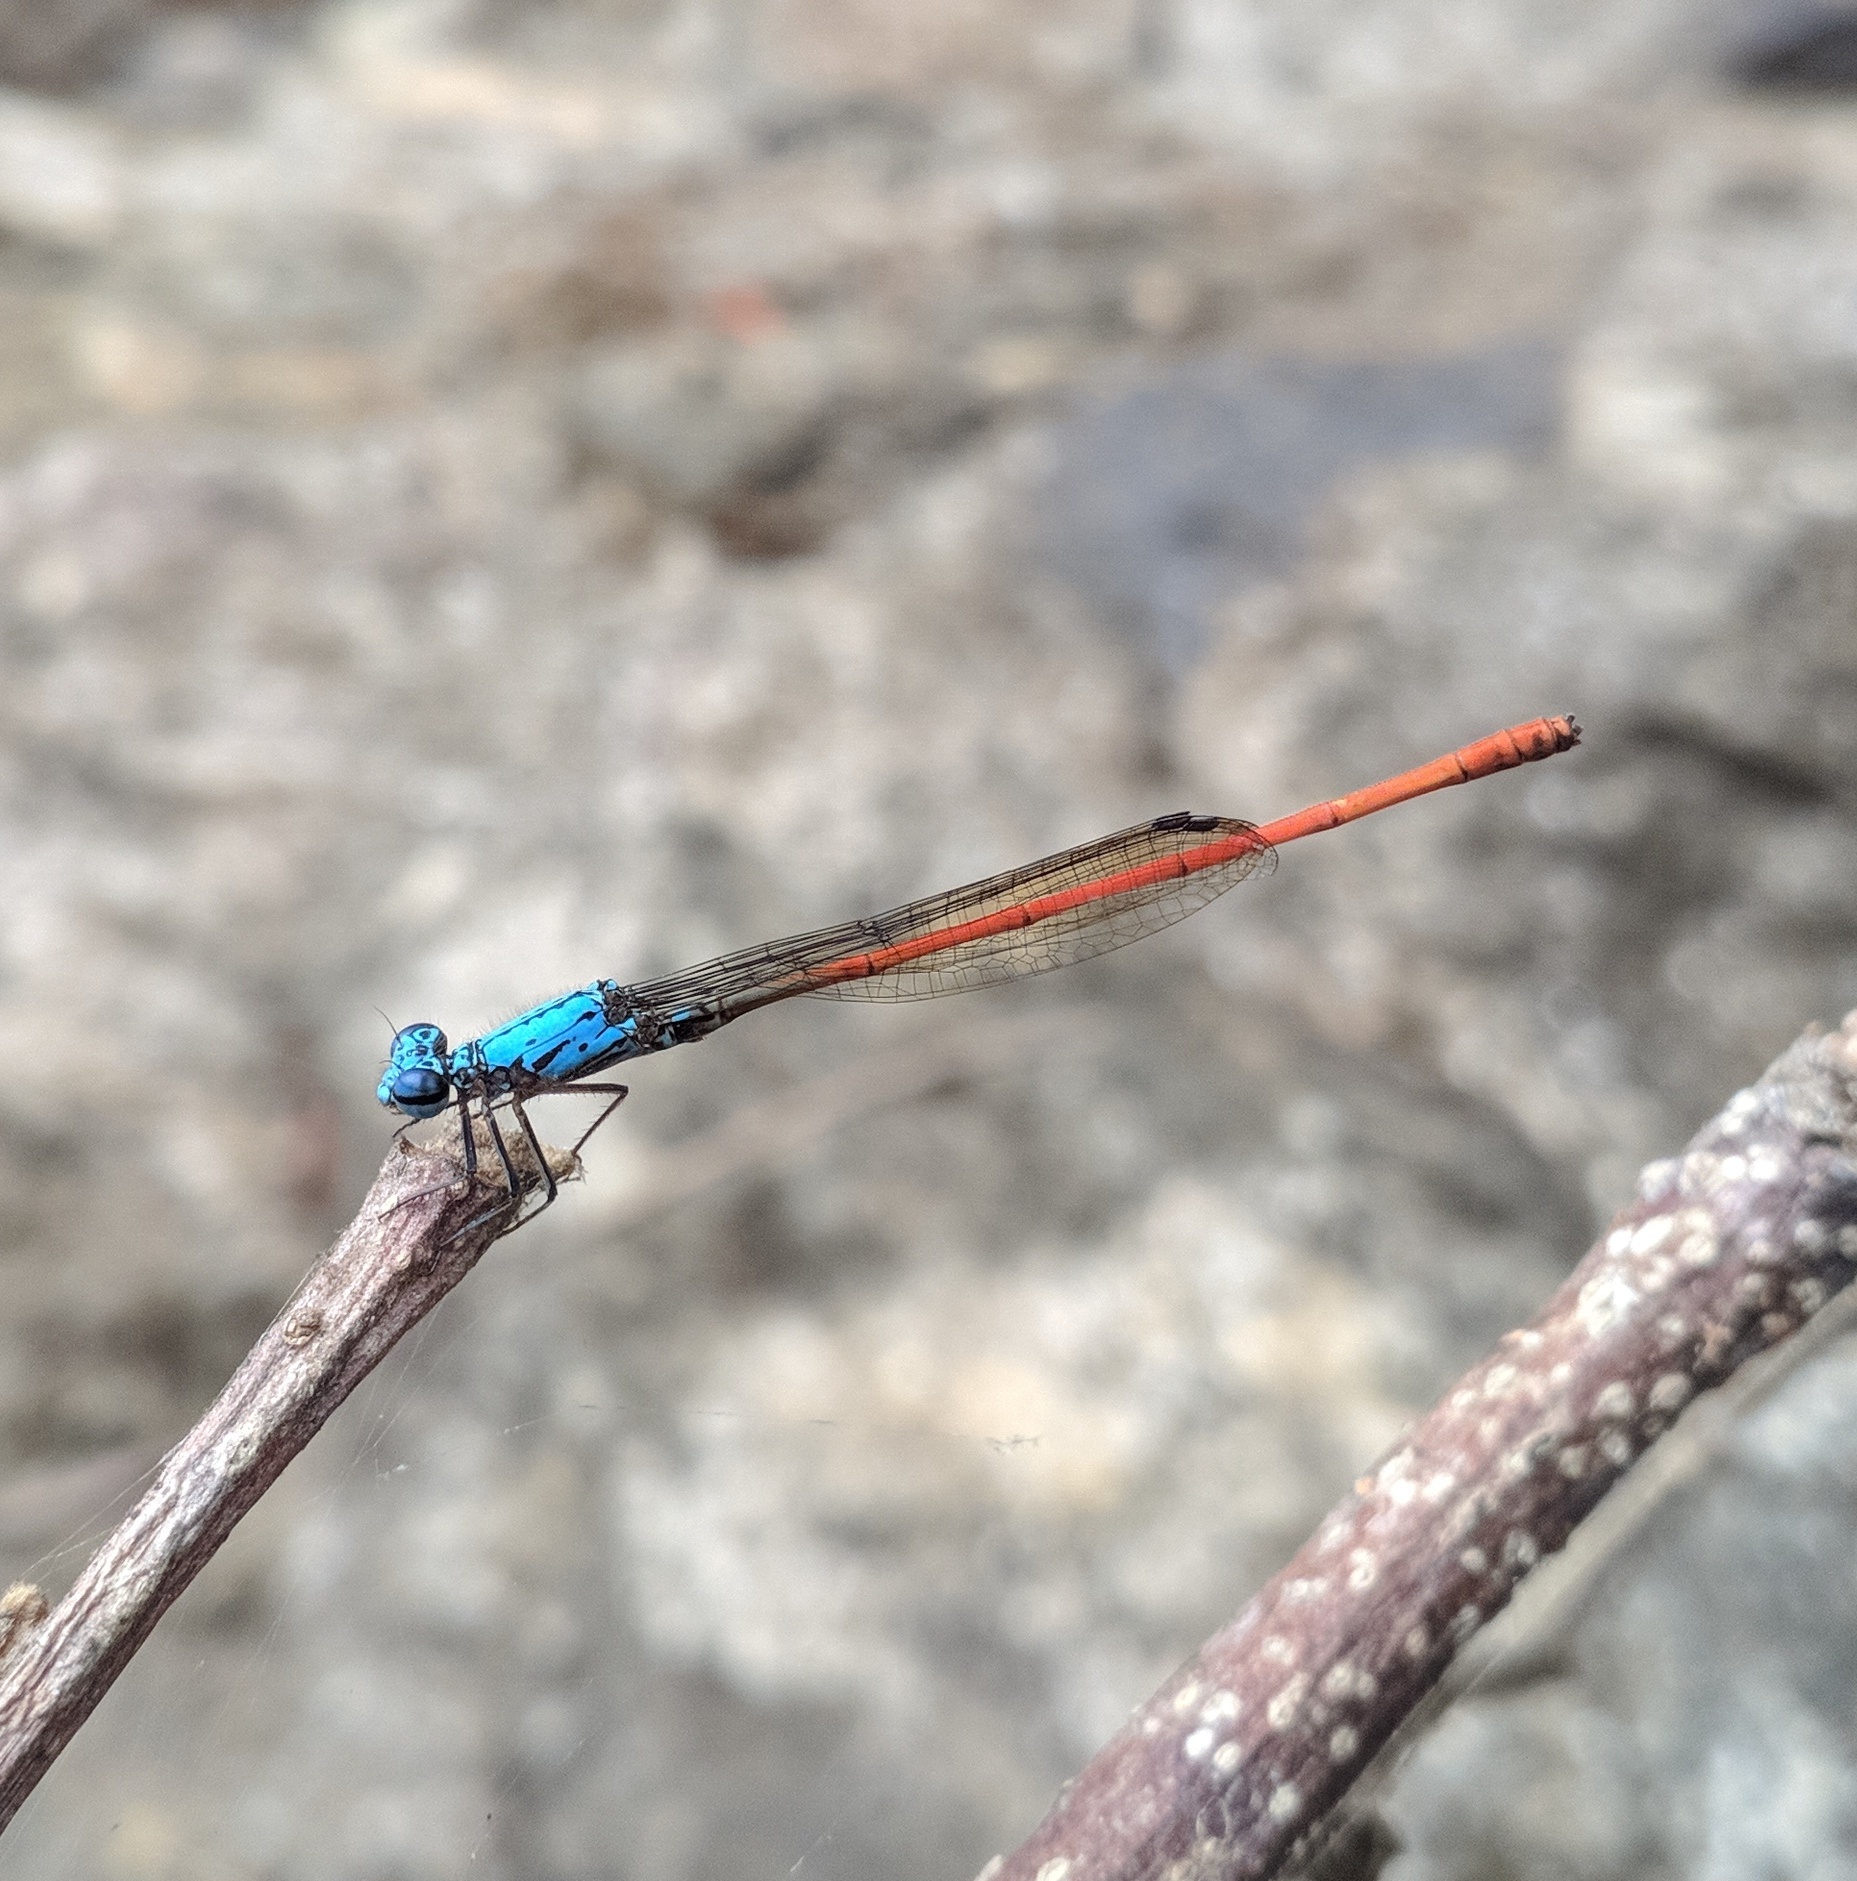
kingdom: Animalia
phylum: Arthropoda
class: Insecta
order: Odonata
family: Coenagrionidae
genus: Neoneura
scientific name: Neoneura sylvatica
